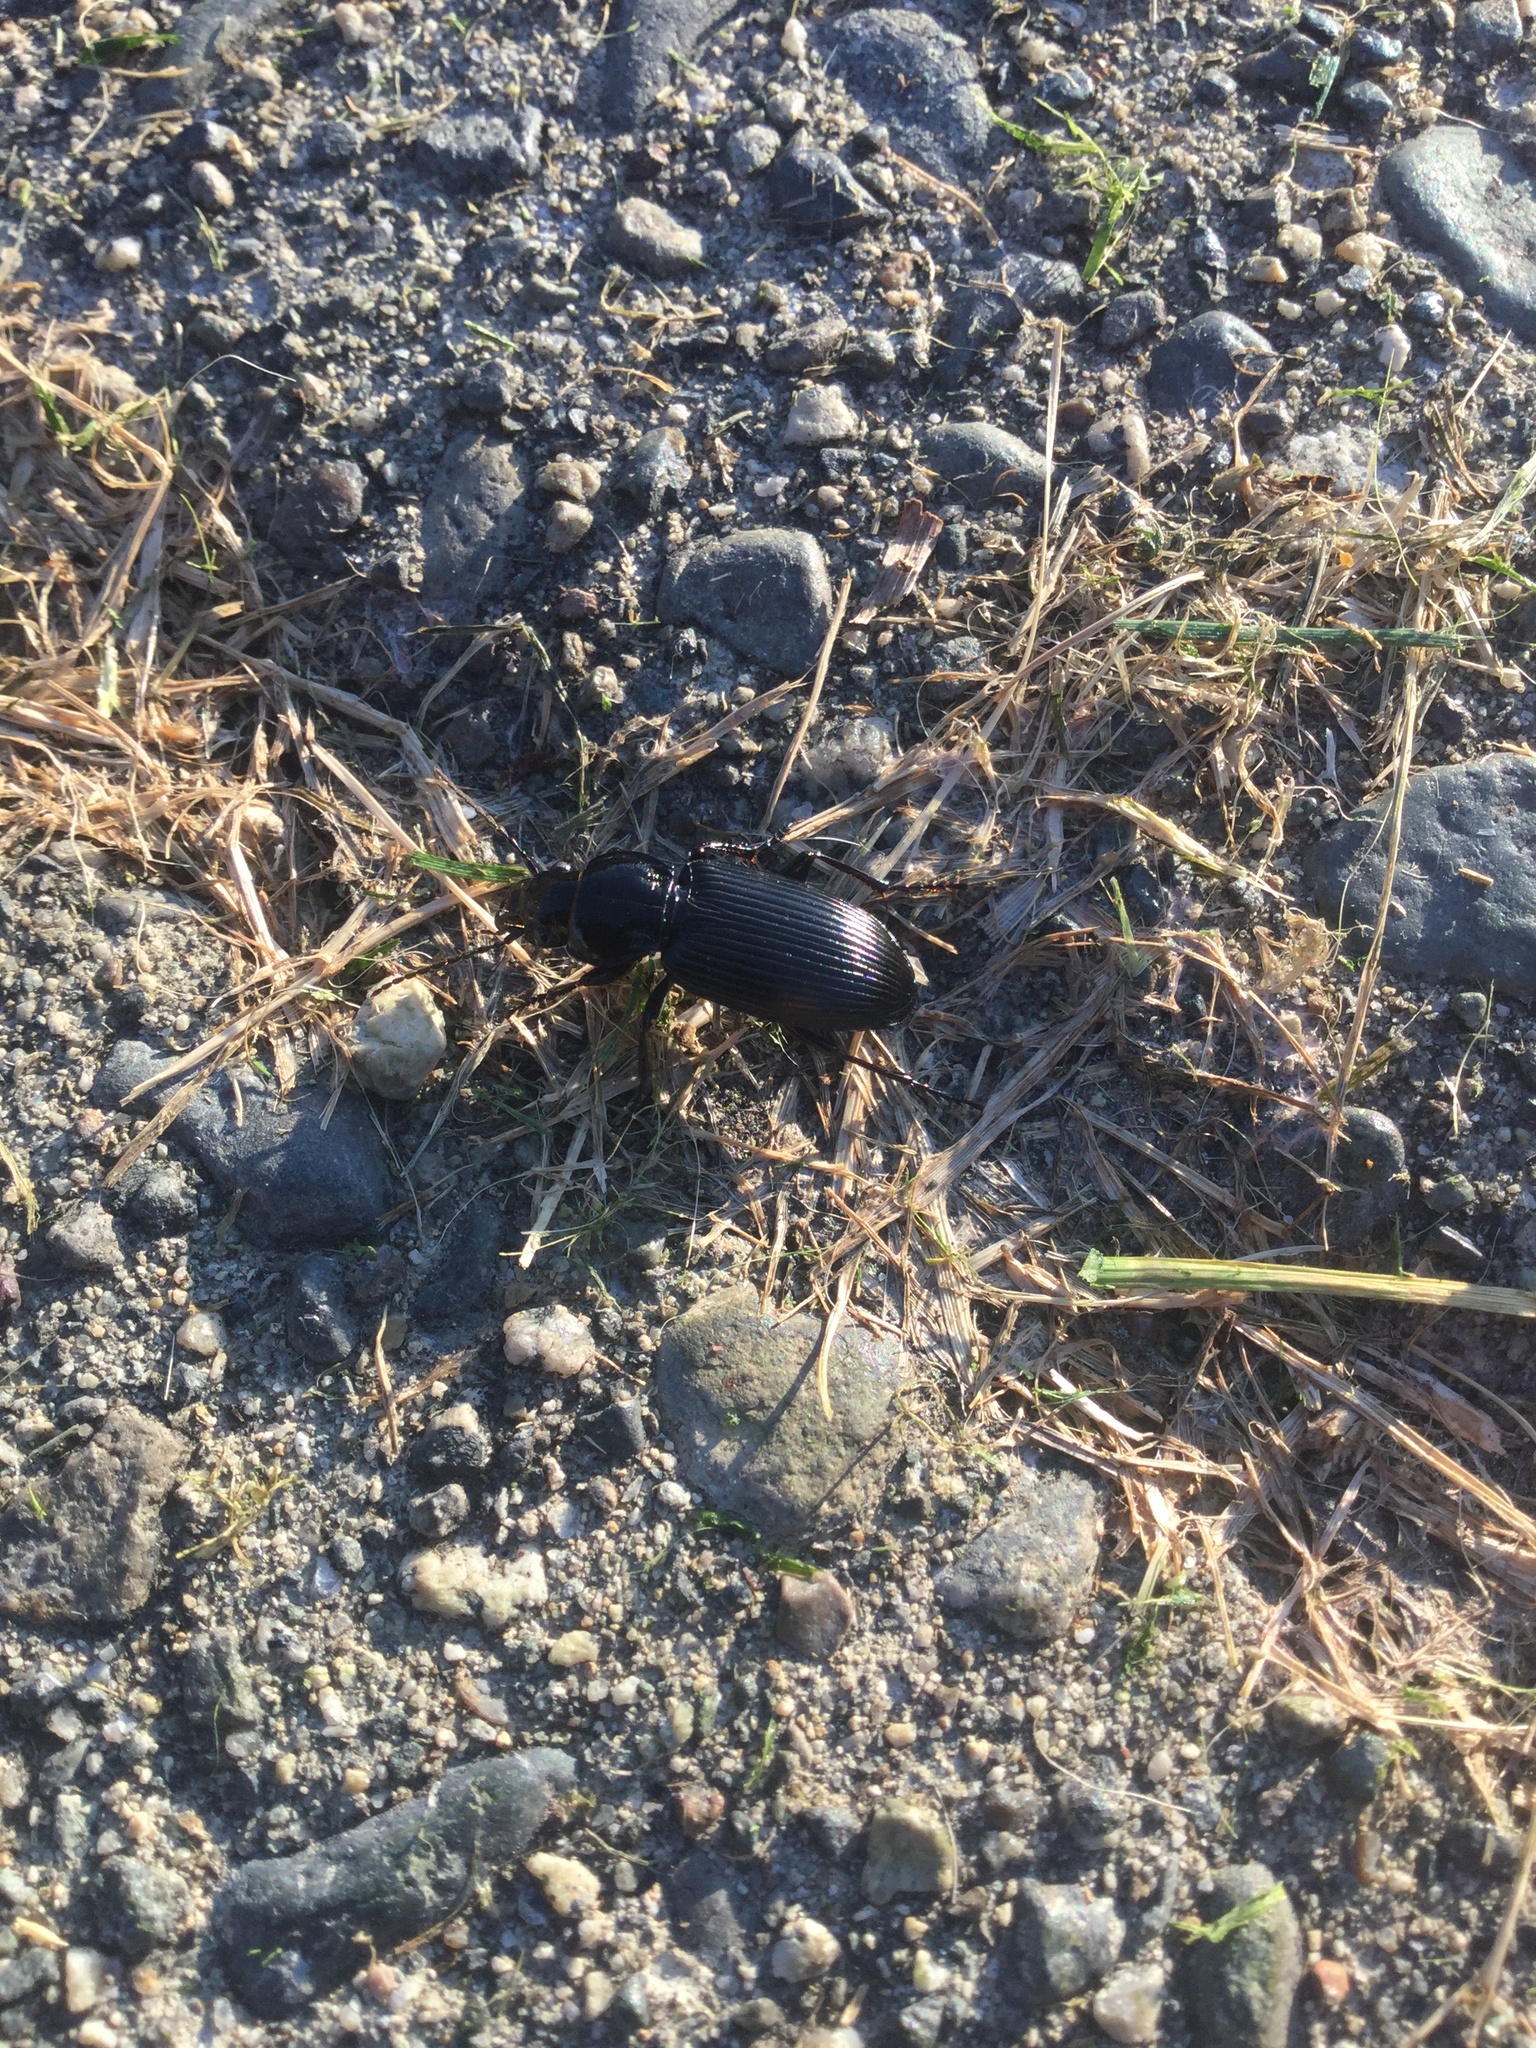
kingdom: Animalia
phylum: Arthropoda
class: Insecta
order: Coleoptera
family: Carabidae
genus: Pterostichus
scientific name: Pterostichus melanarius
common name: European dark harp ground beetle
